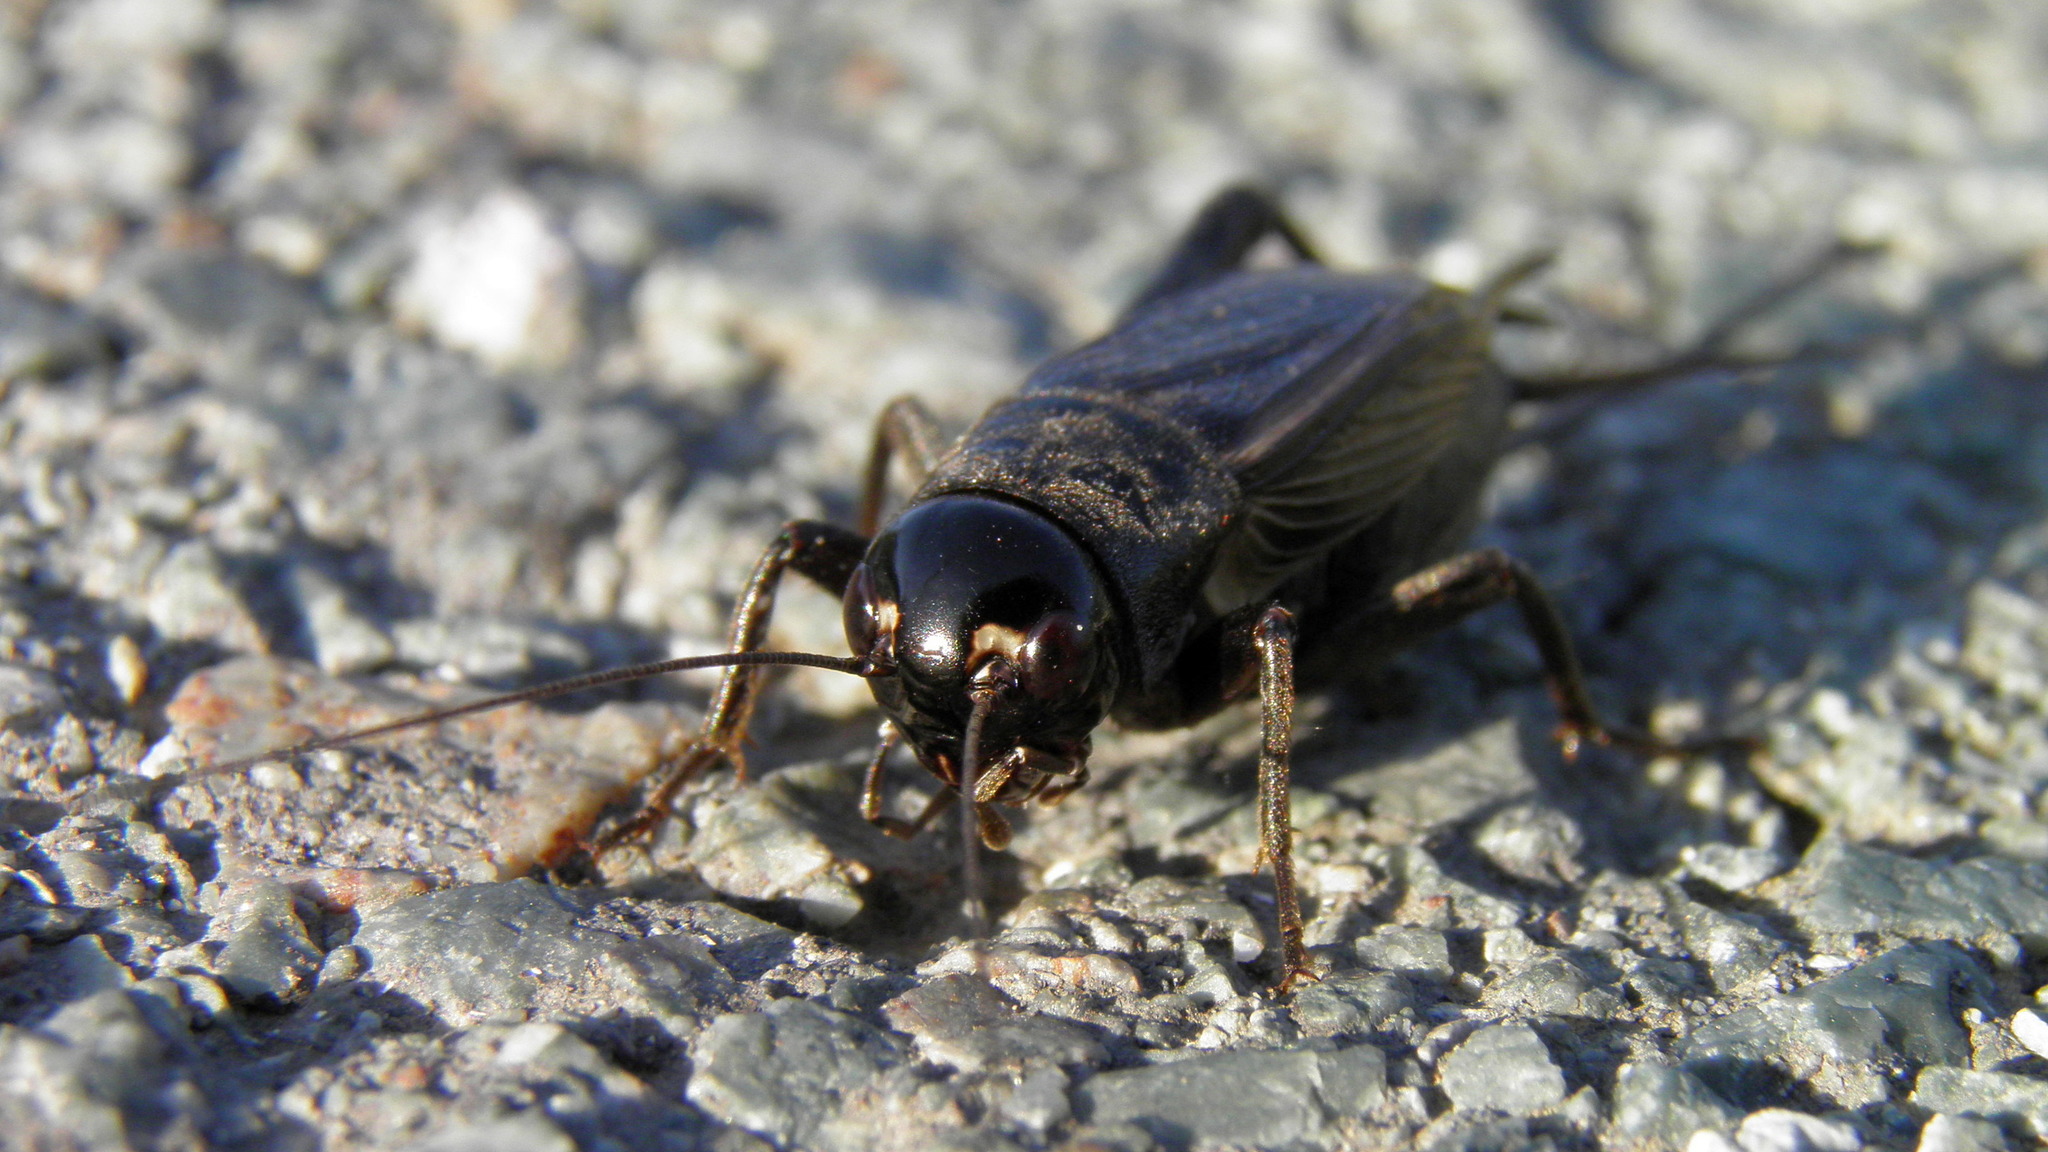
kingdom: Animalia
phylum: Arthropoda
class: Insecta
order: Orthoptera
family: Gryllidae
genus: Teleogryllus
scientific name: Teleogryllus infernalis
